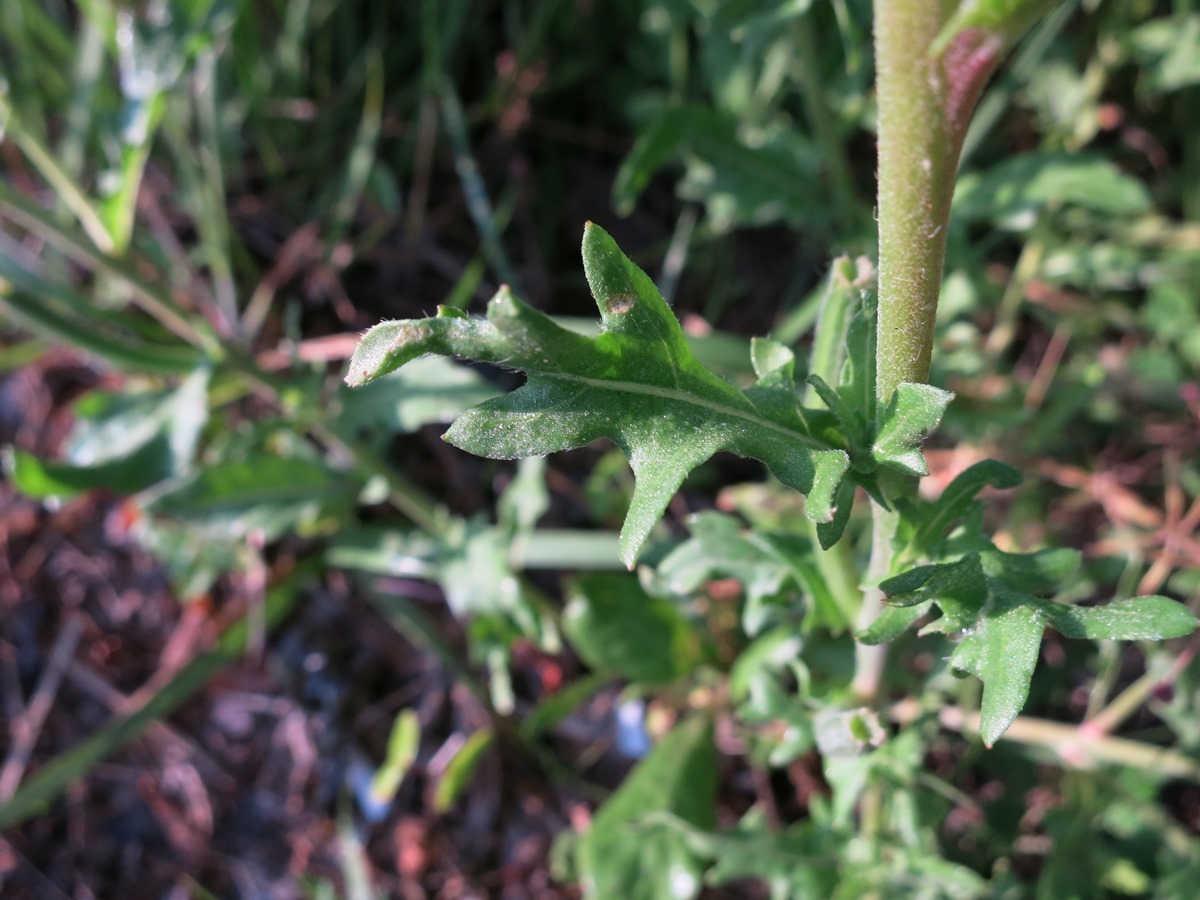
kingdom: Plantae
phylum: Tracheophyta
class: Magnoliopsida
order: Myrtales
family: Onagraceae
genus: Oenothera
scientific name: Oenothera laciniata
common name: Cut-leaved evening-primrose
